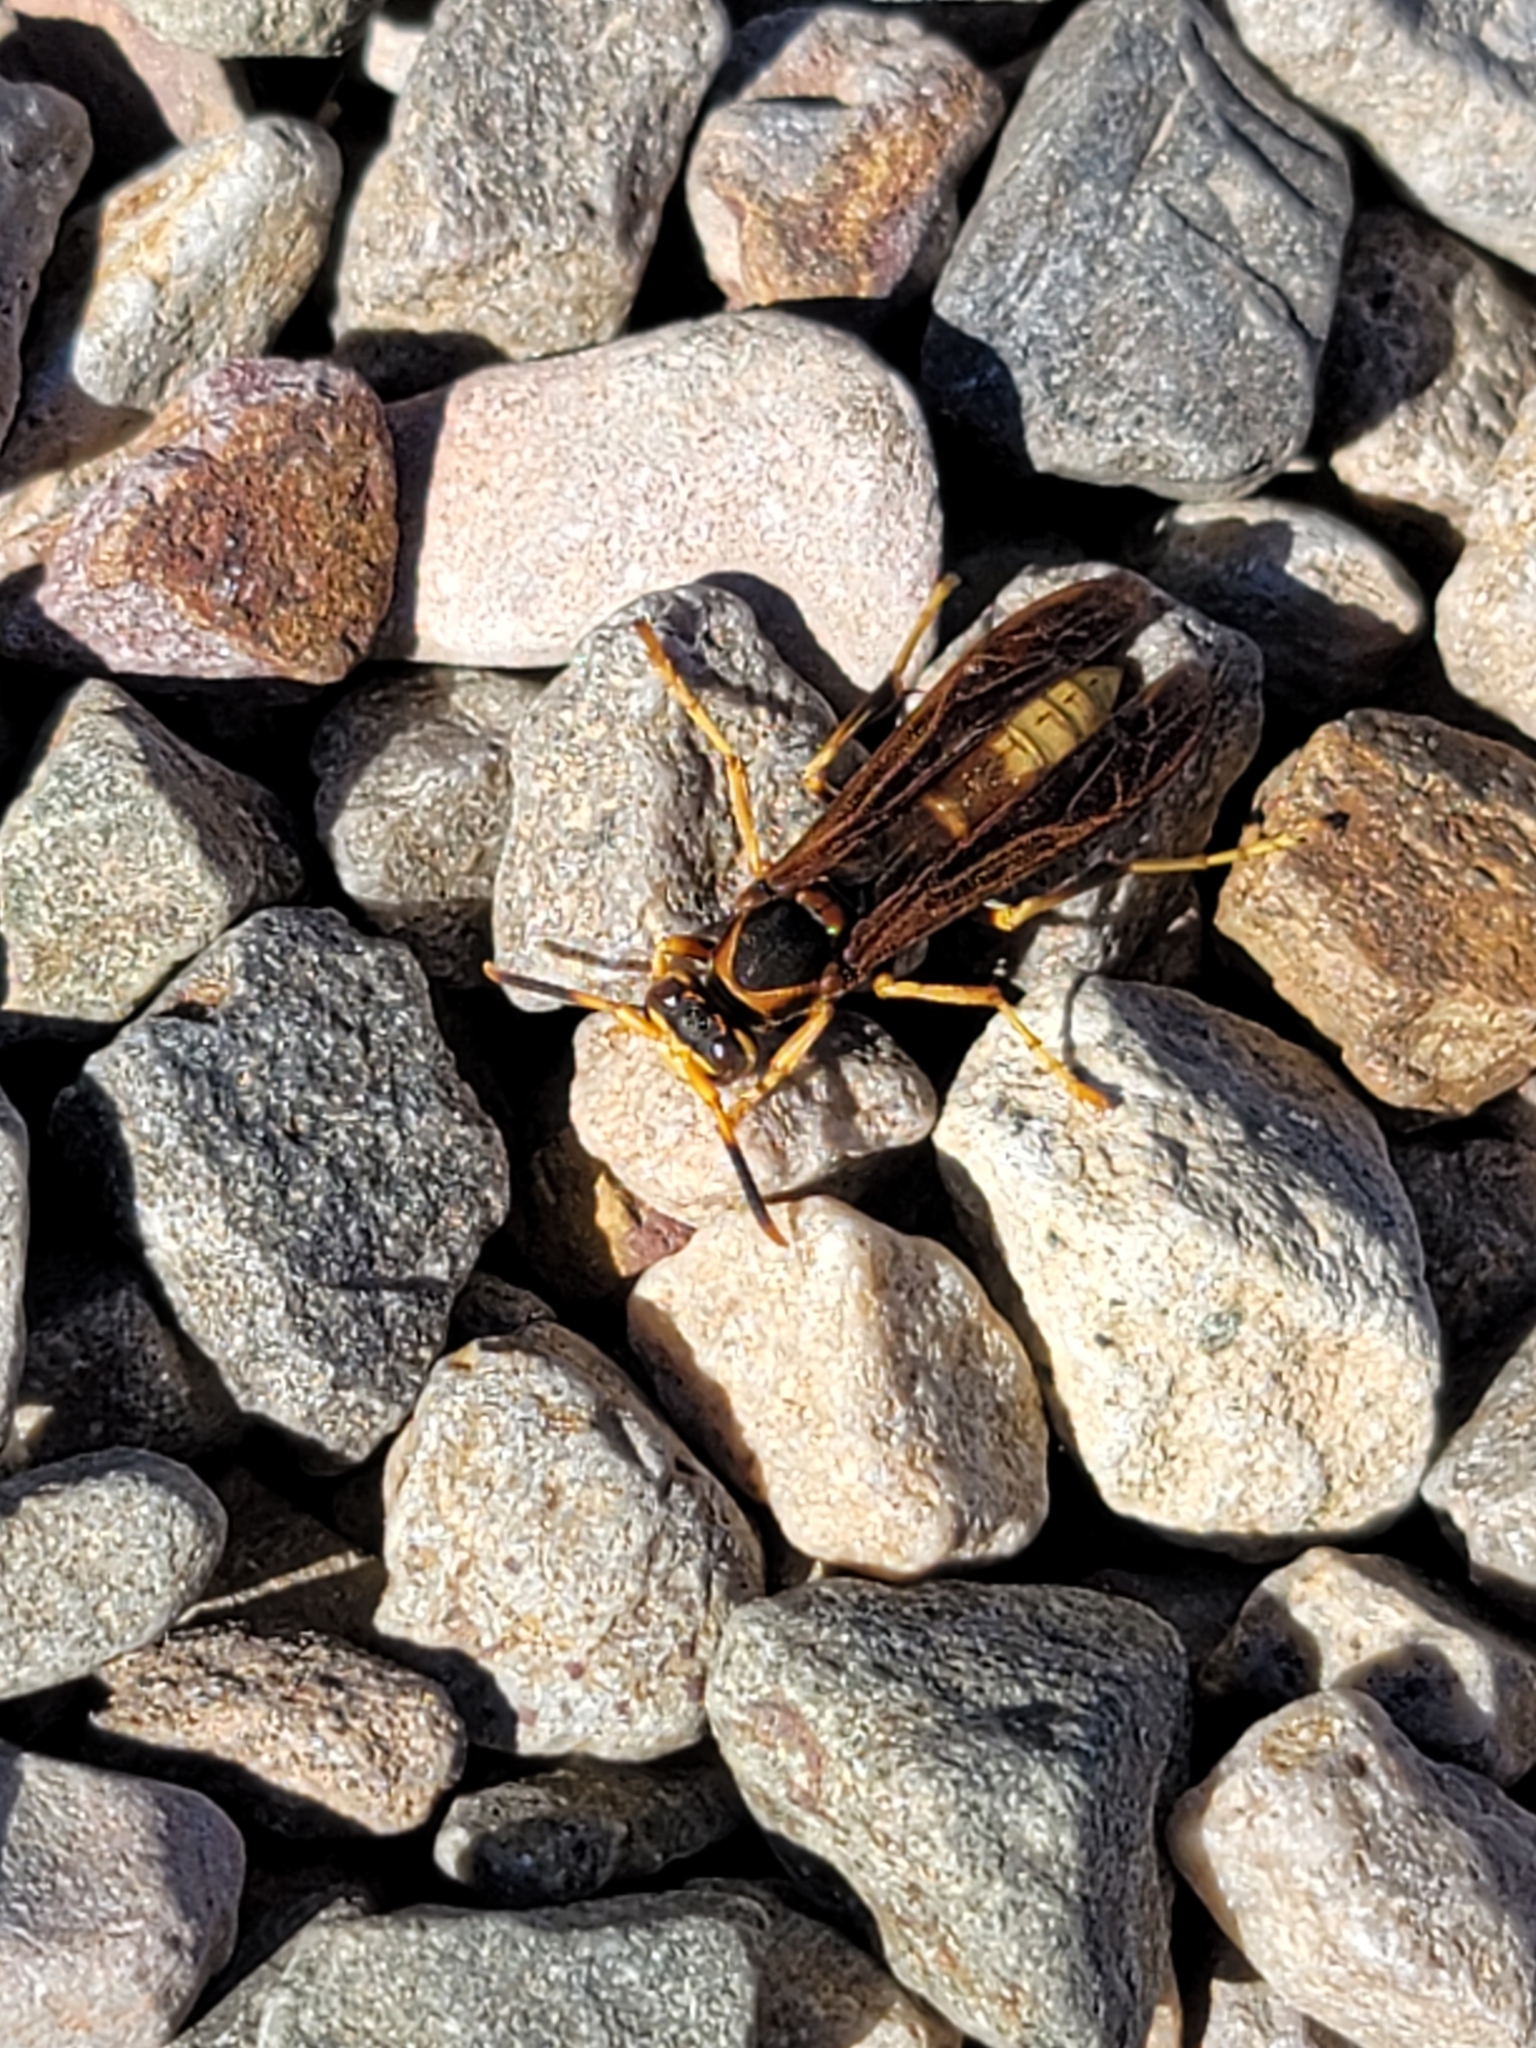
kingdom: Animalia
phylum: Arthropoda
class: Insecta
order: Hymenoptera
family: Eumenidae
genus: Polistes
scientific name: Polistes comanchus
